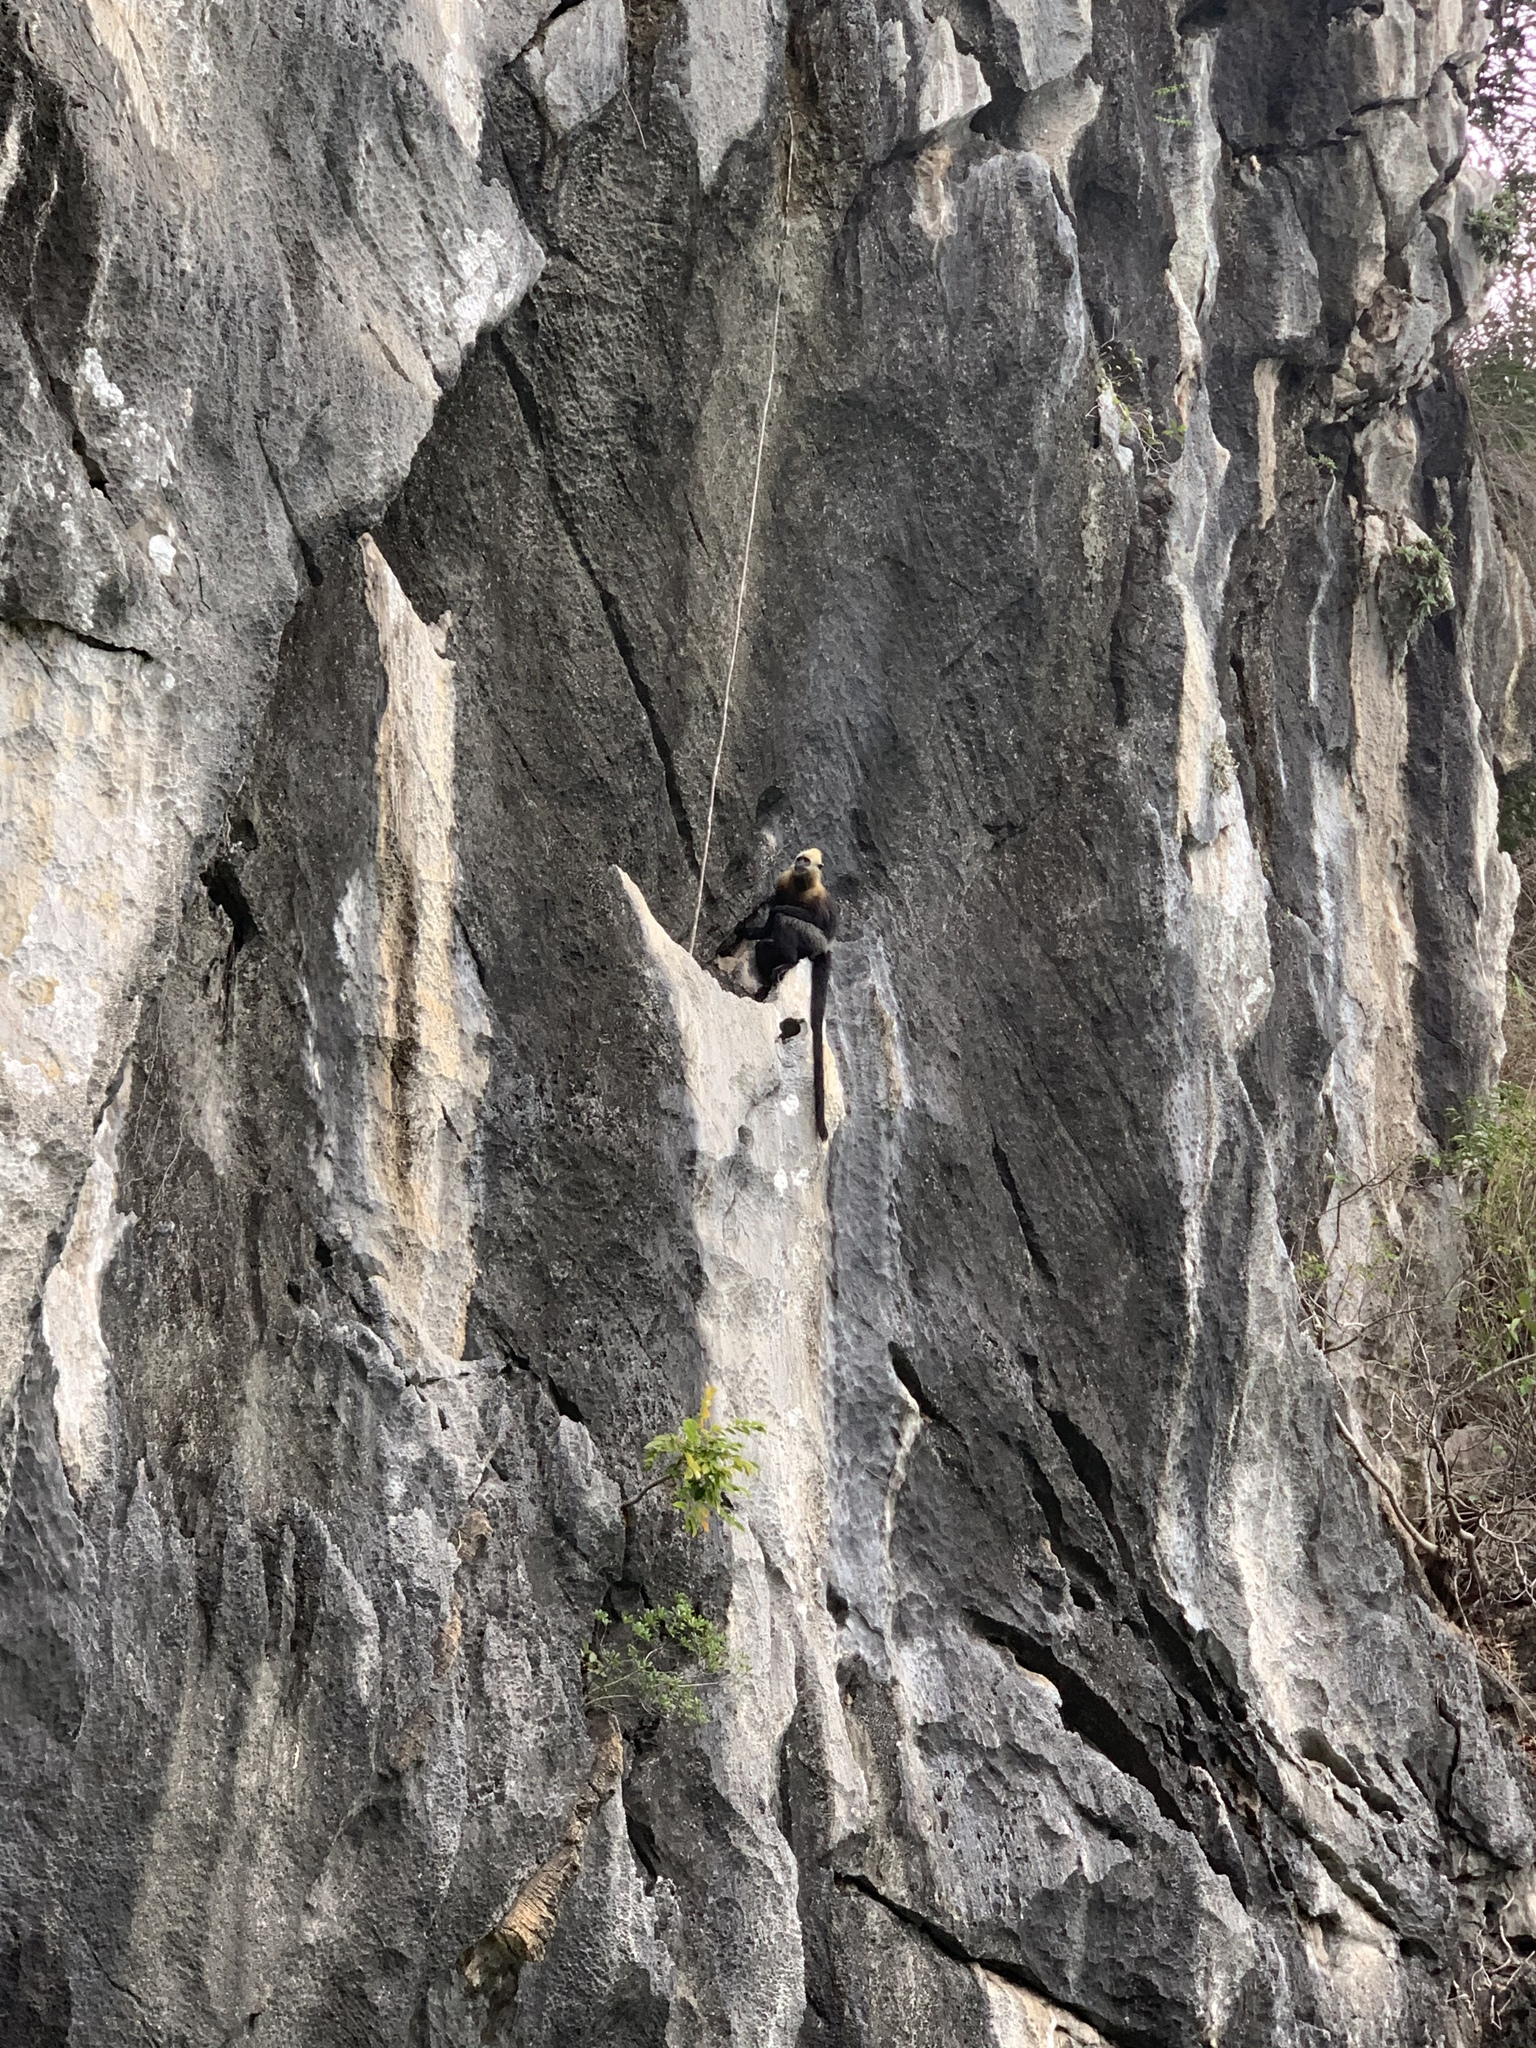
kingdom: Animalia
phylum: Chordata
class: Mammalia
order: Primates
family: Cercopithecidae
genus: Trachypithecus
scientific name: Trachypithecus poliocephalus
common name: Cat ba langur
